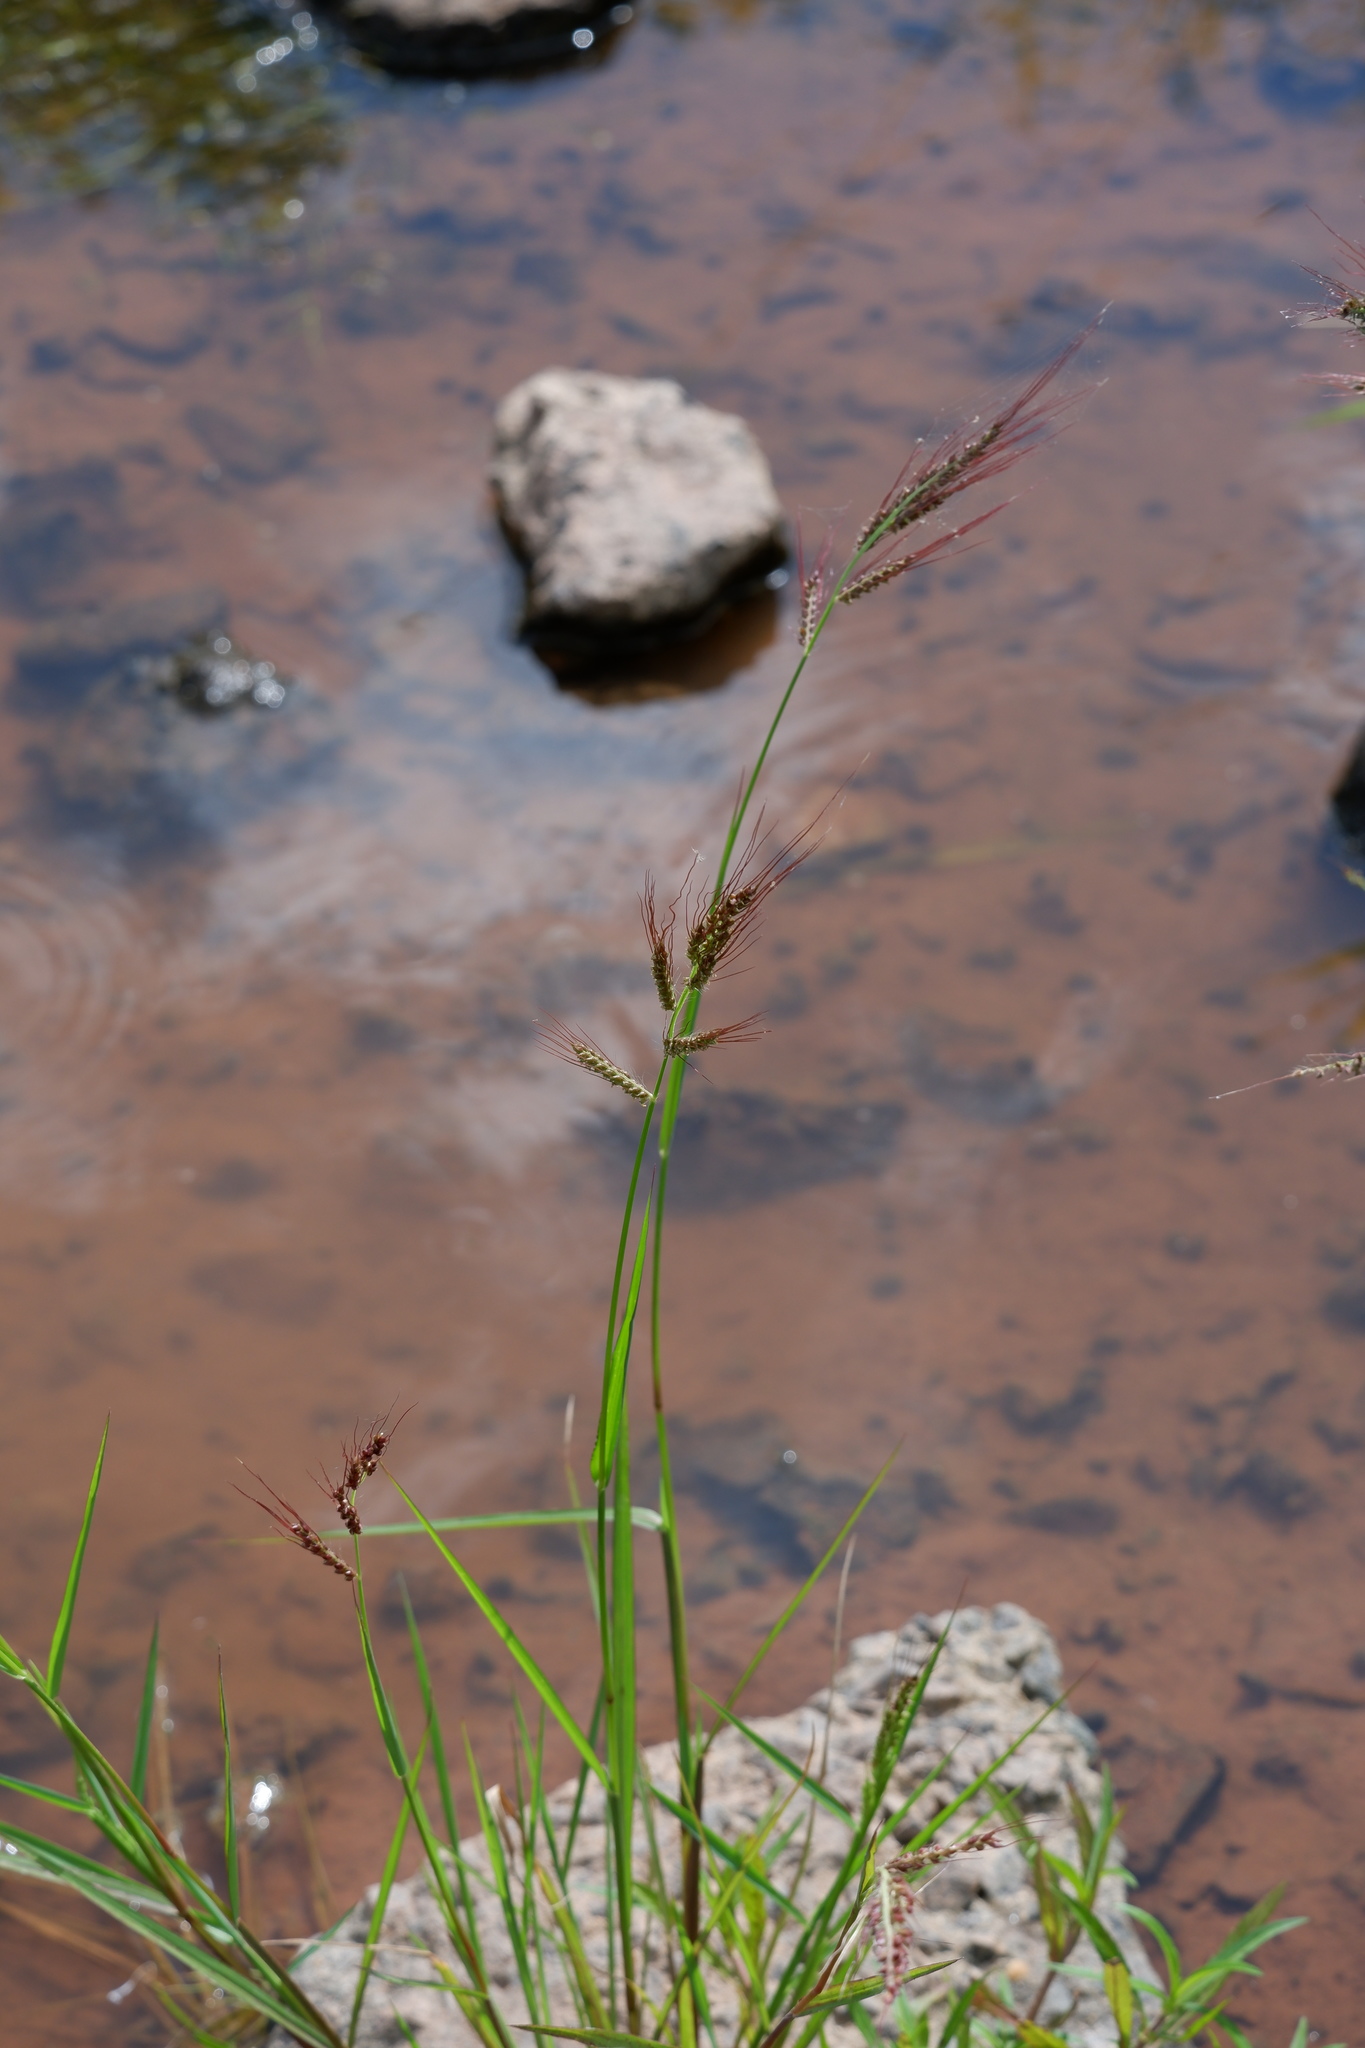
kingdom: Plantae
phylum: Tracheophyta
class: Liliopsida
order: Poales
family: Poaceae
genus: Echinochloa
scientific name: Echinochloa crus-galli
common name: Cockspur
